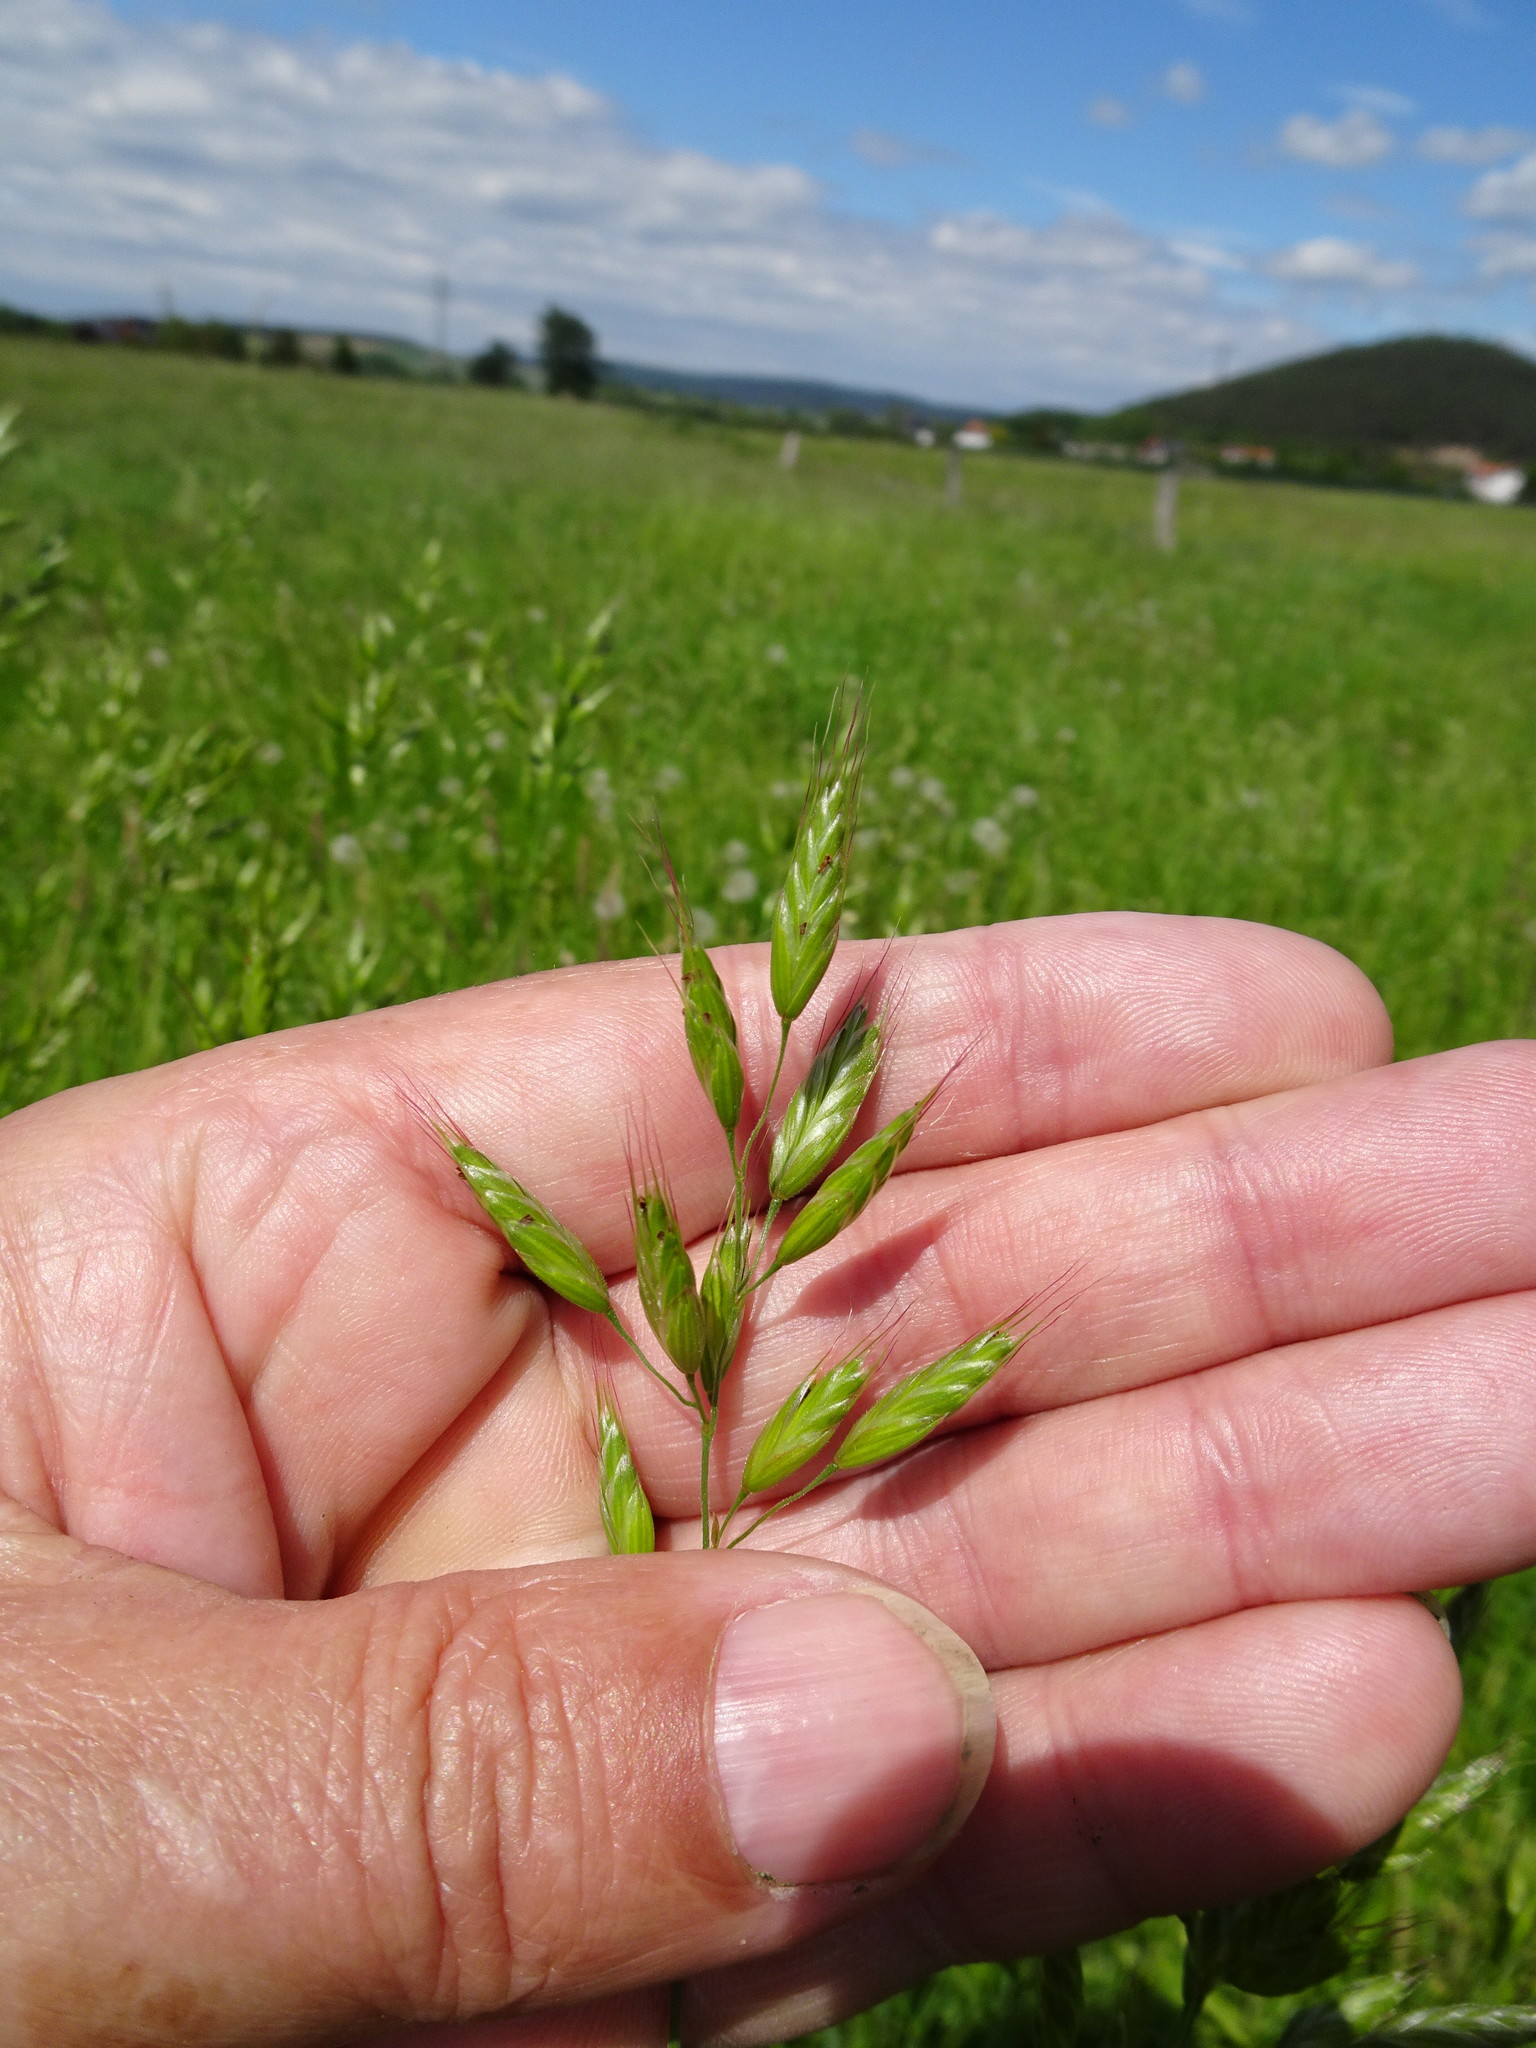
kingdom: Plantae
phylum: Tracheophyta
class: Liliopsida
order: Poales
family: Poaceae
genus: Bromus
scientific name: Bromus hordeaceus
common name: Soft brome
